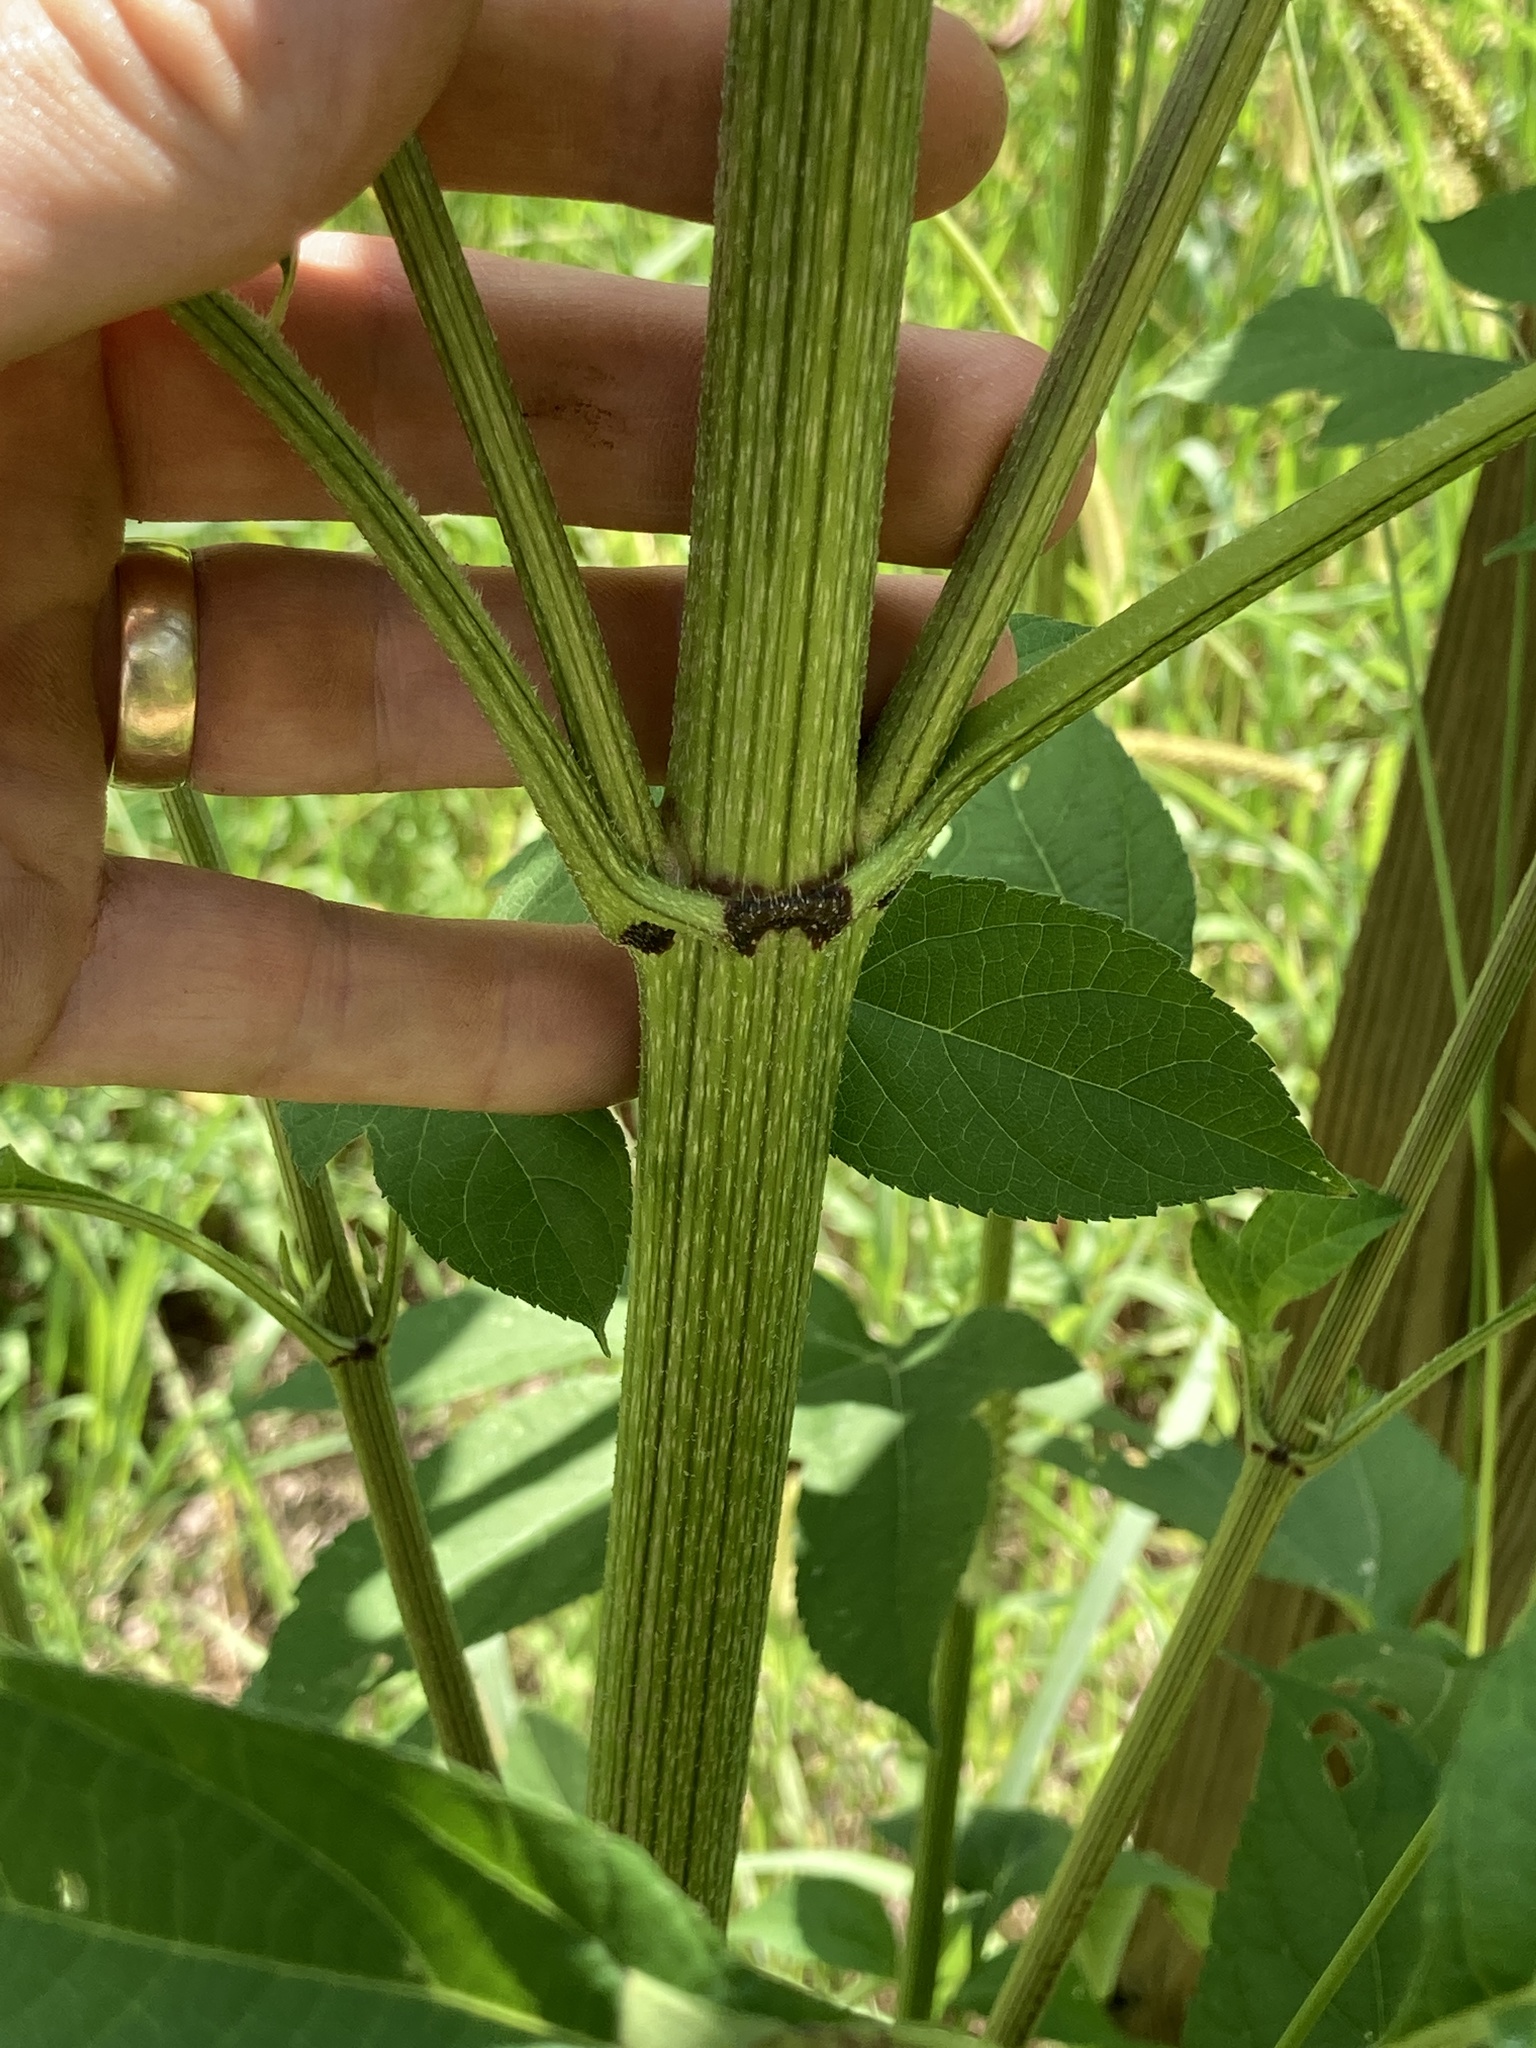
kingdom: Plantae
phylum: Tracheophyta
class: Magnoliopsida
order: Asterales
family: Asteraceae
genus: Ambrosia
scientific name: Ambrosia trifida
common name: Giant ragweed
